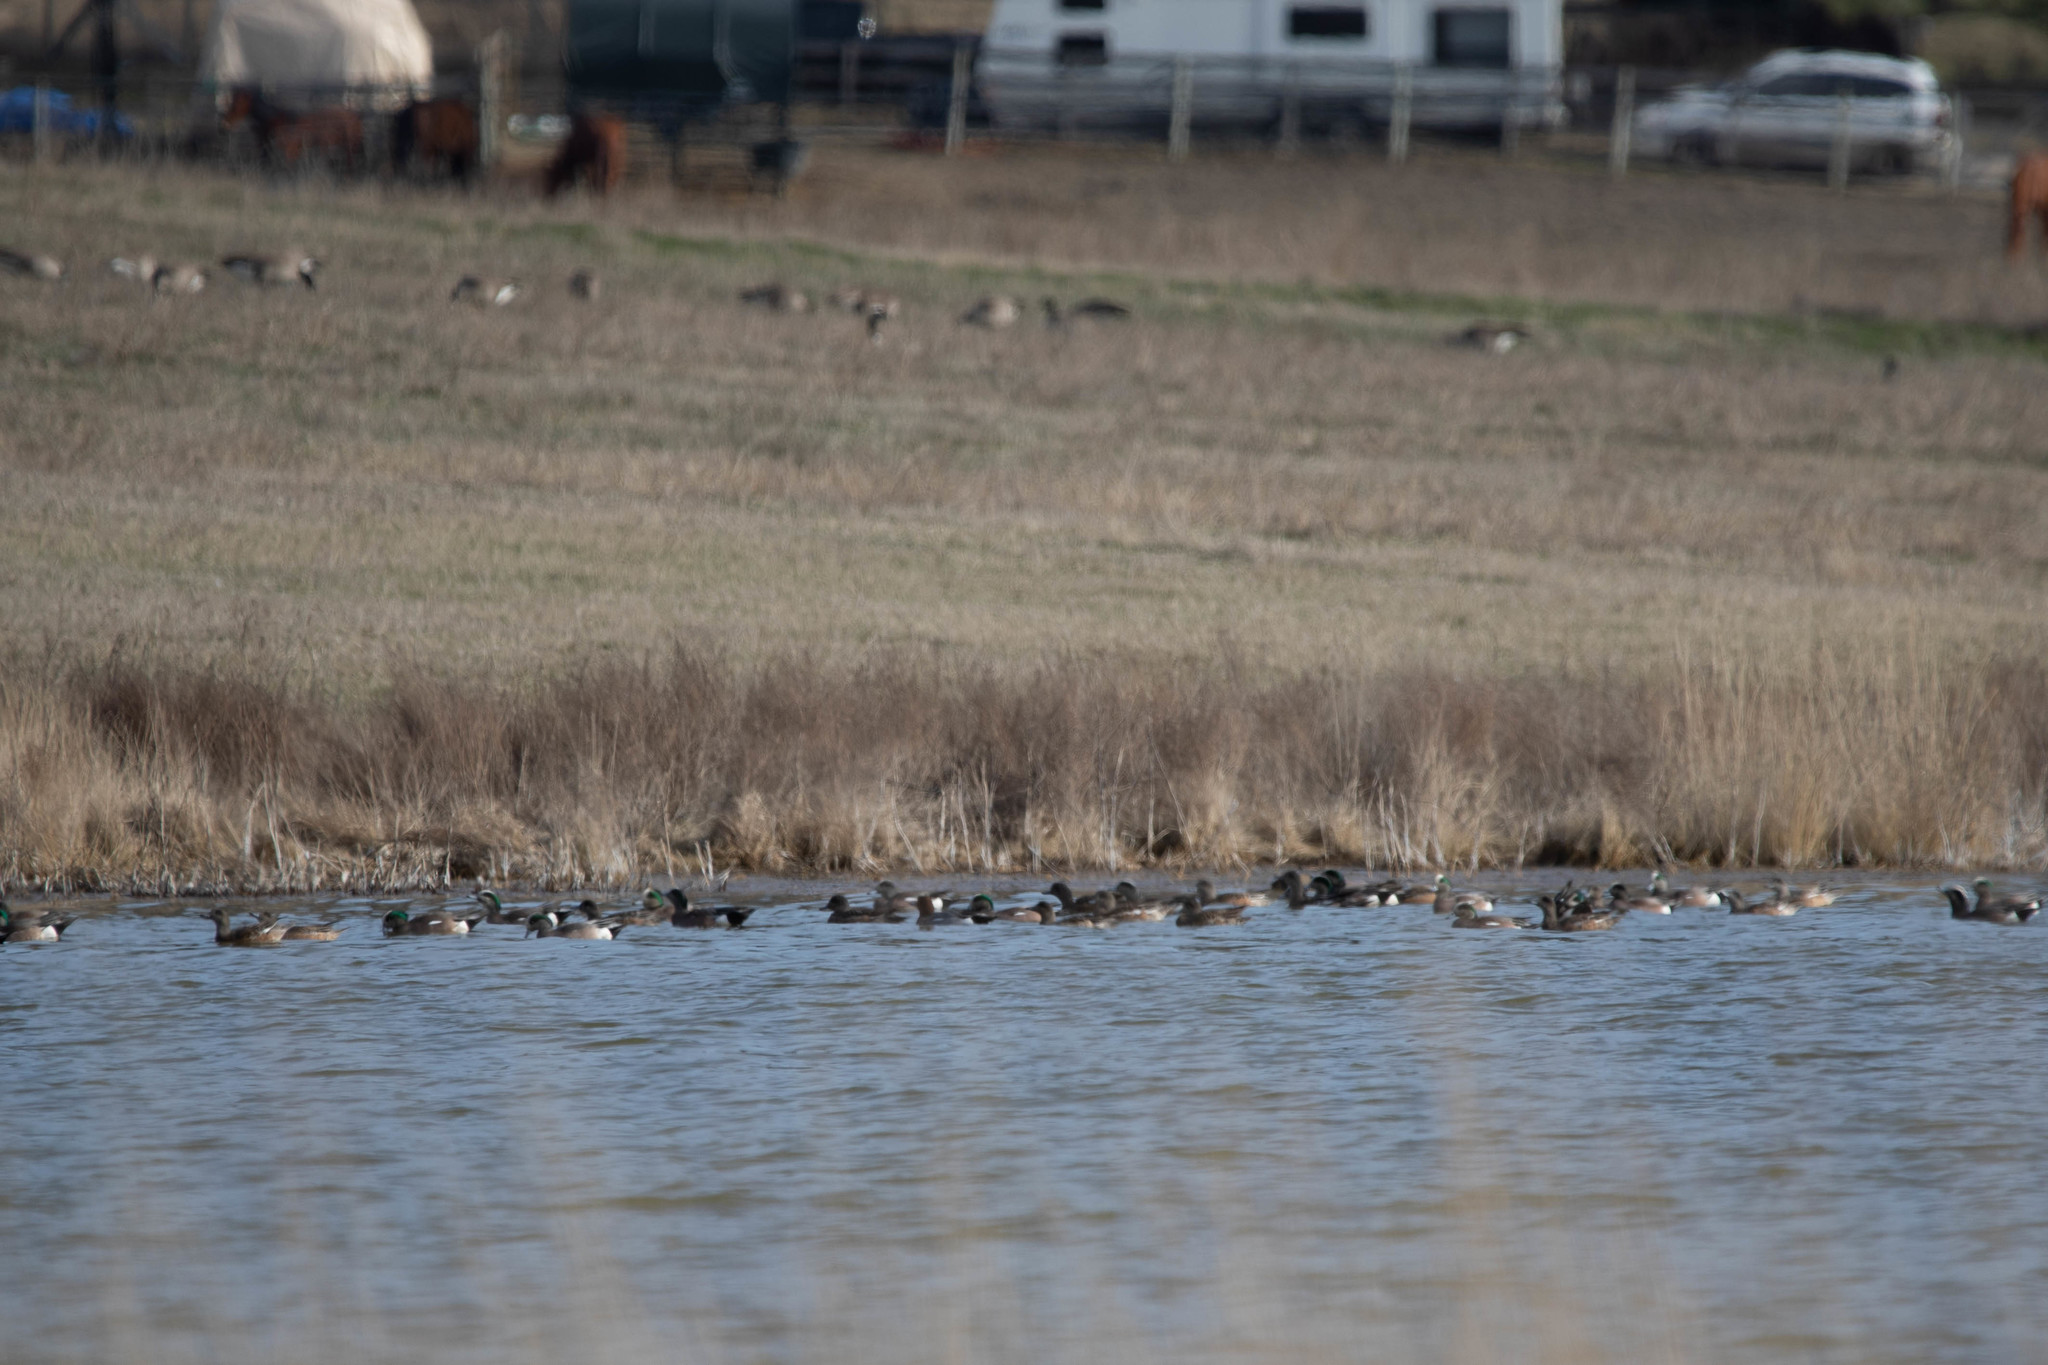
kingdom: Animalia
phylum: Chordata
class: Aves
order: Anseriformes
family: Anatidae
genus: Mareca
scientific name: Mareca americana
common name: American wigeon
